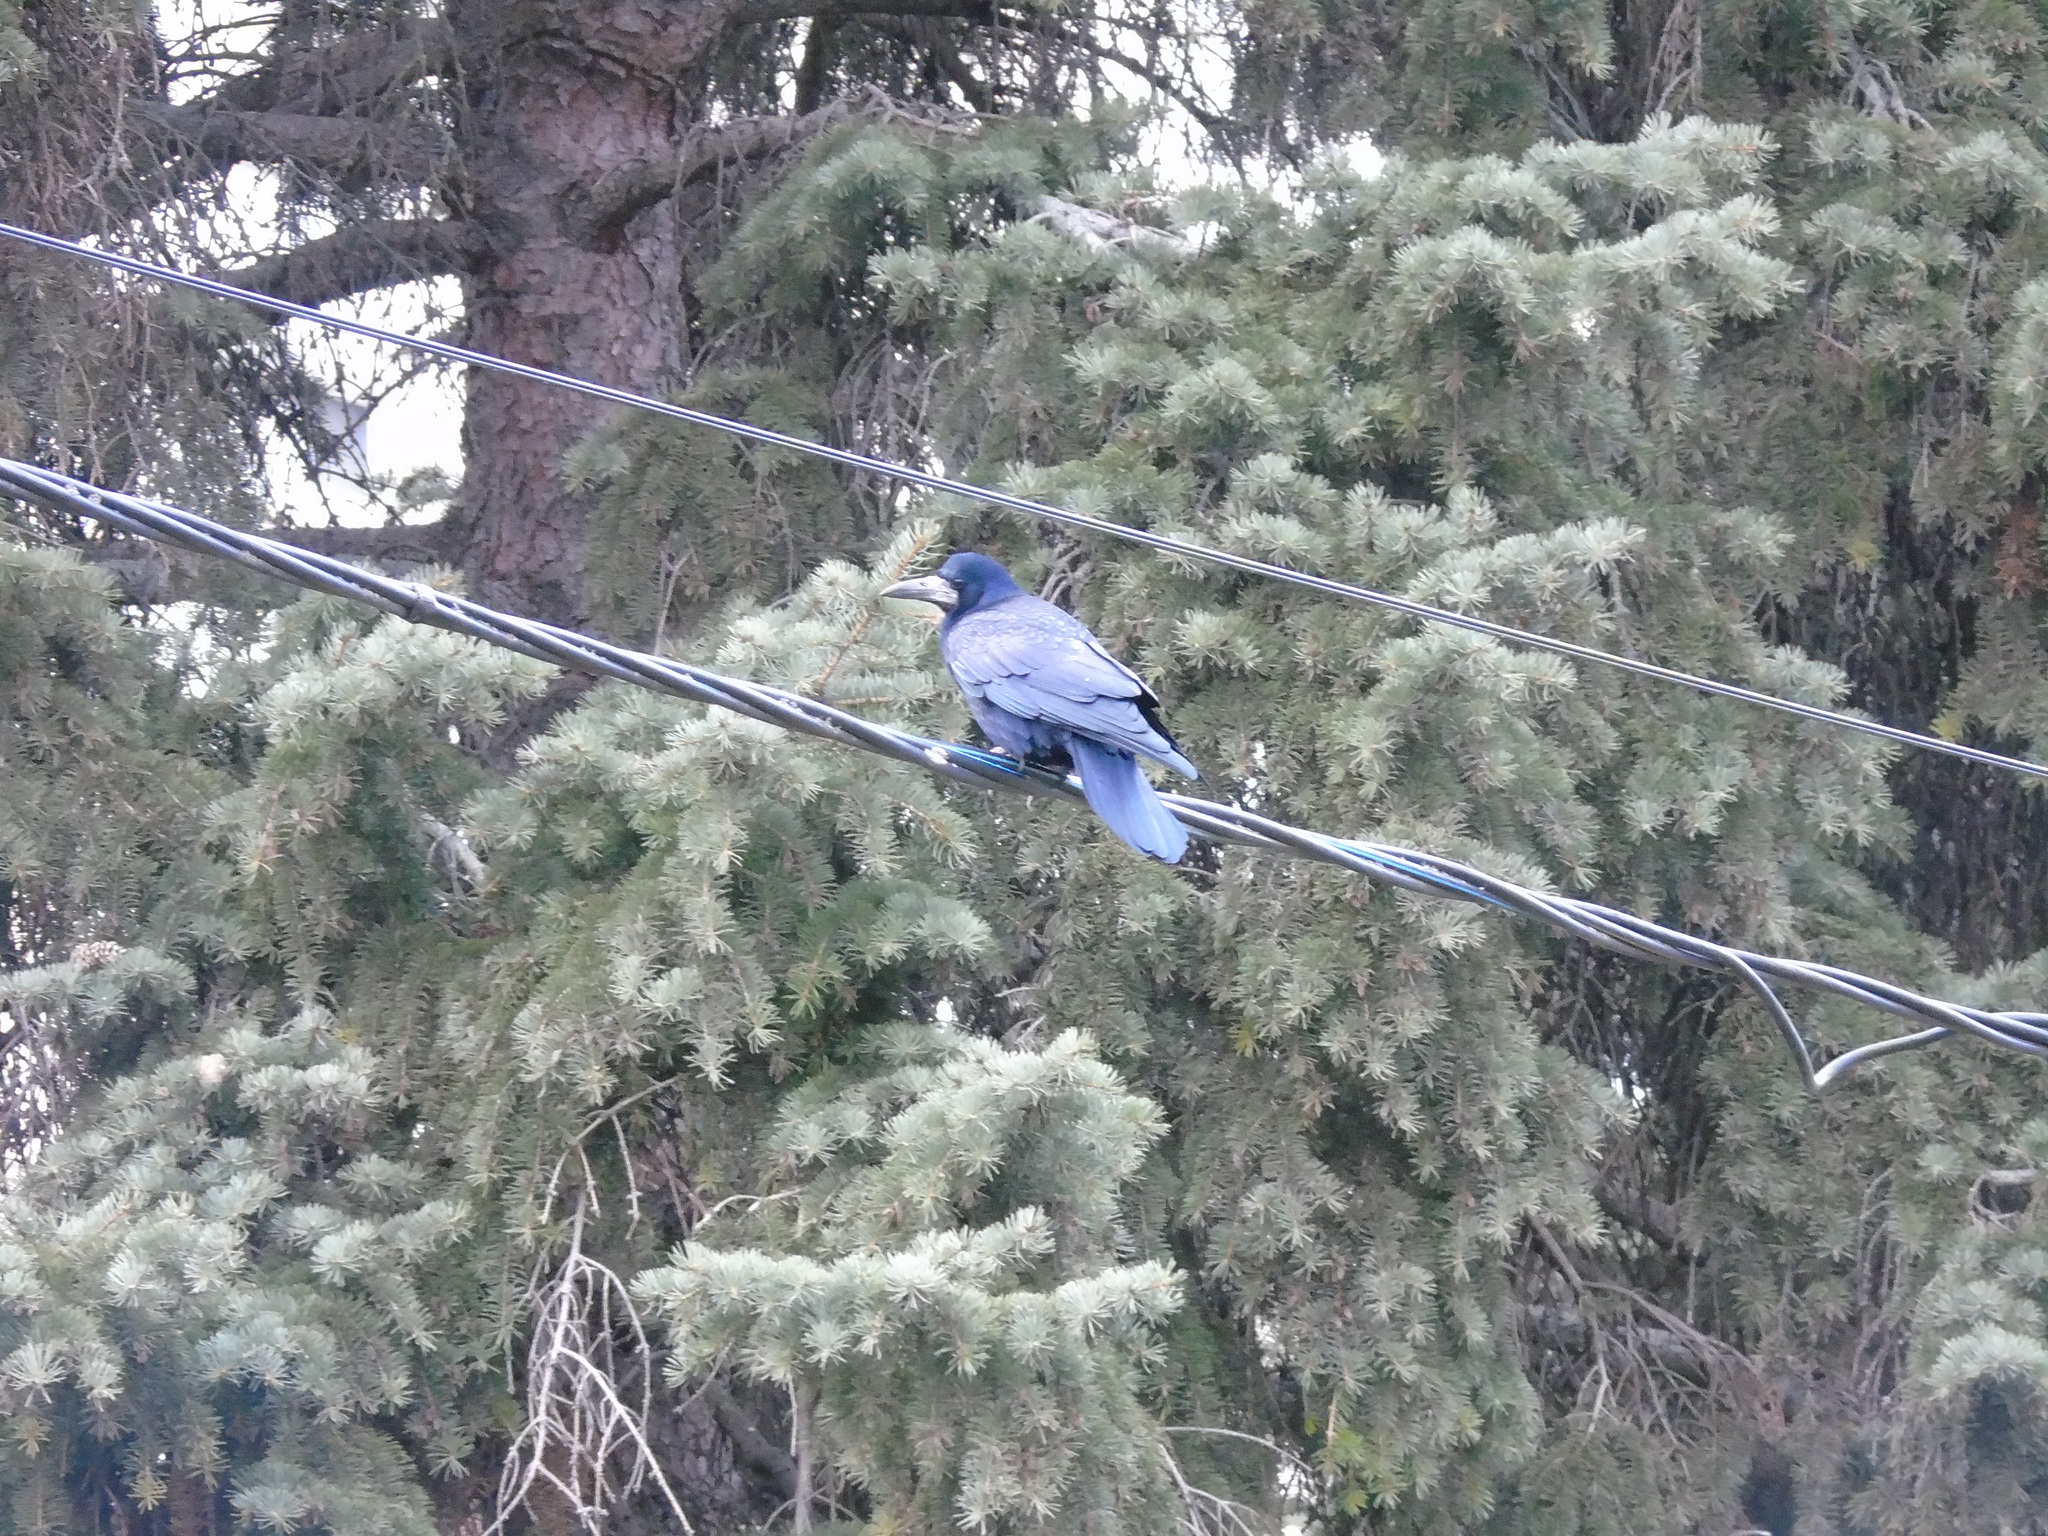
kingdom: Animalia
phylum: Chordata
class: Aves
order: Passeriformes
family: Corvidae
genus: Corvus
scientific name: Corvus frugilegus
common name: Rook
